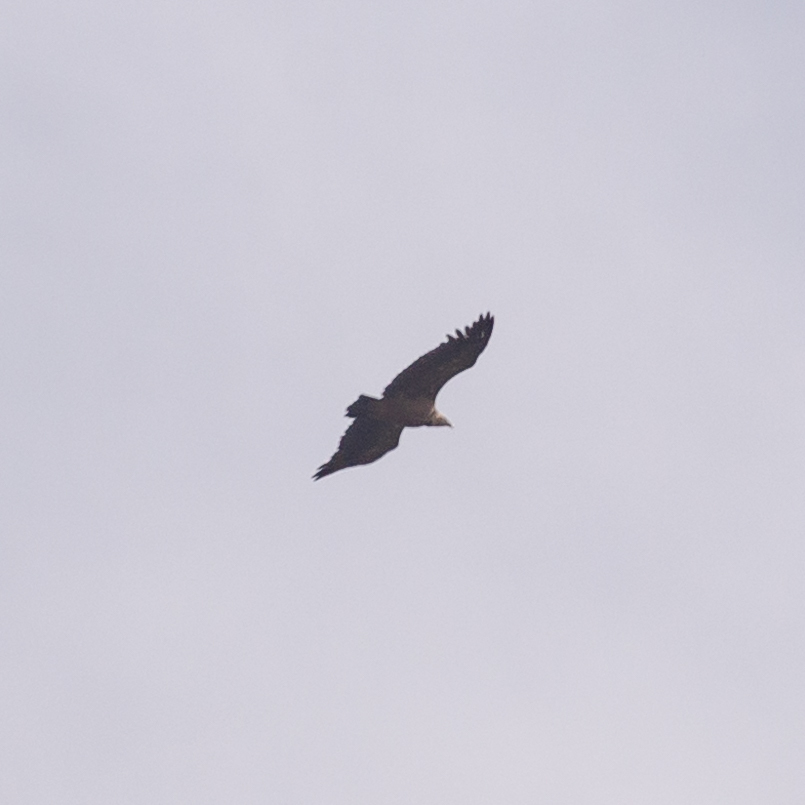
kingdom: Animalia
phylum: Chordata
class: Aves
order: Accipitriformes
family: Accipitridae
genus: Gyps
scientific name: Gyps fulvus
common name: Griffon vulture
